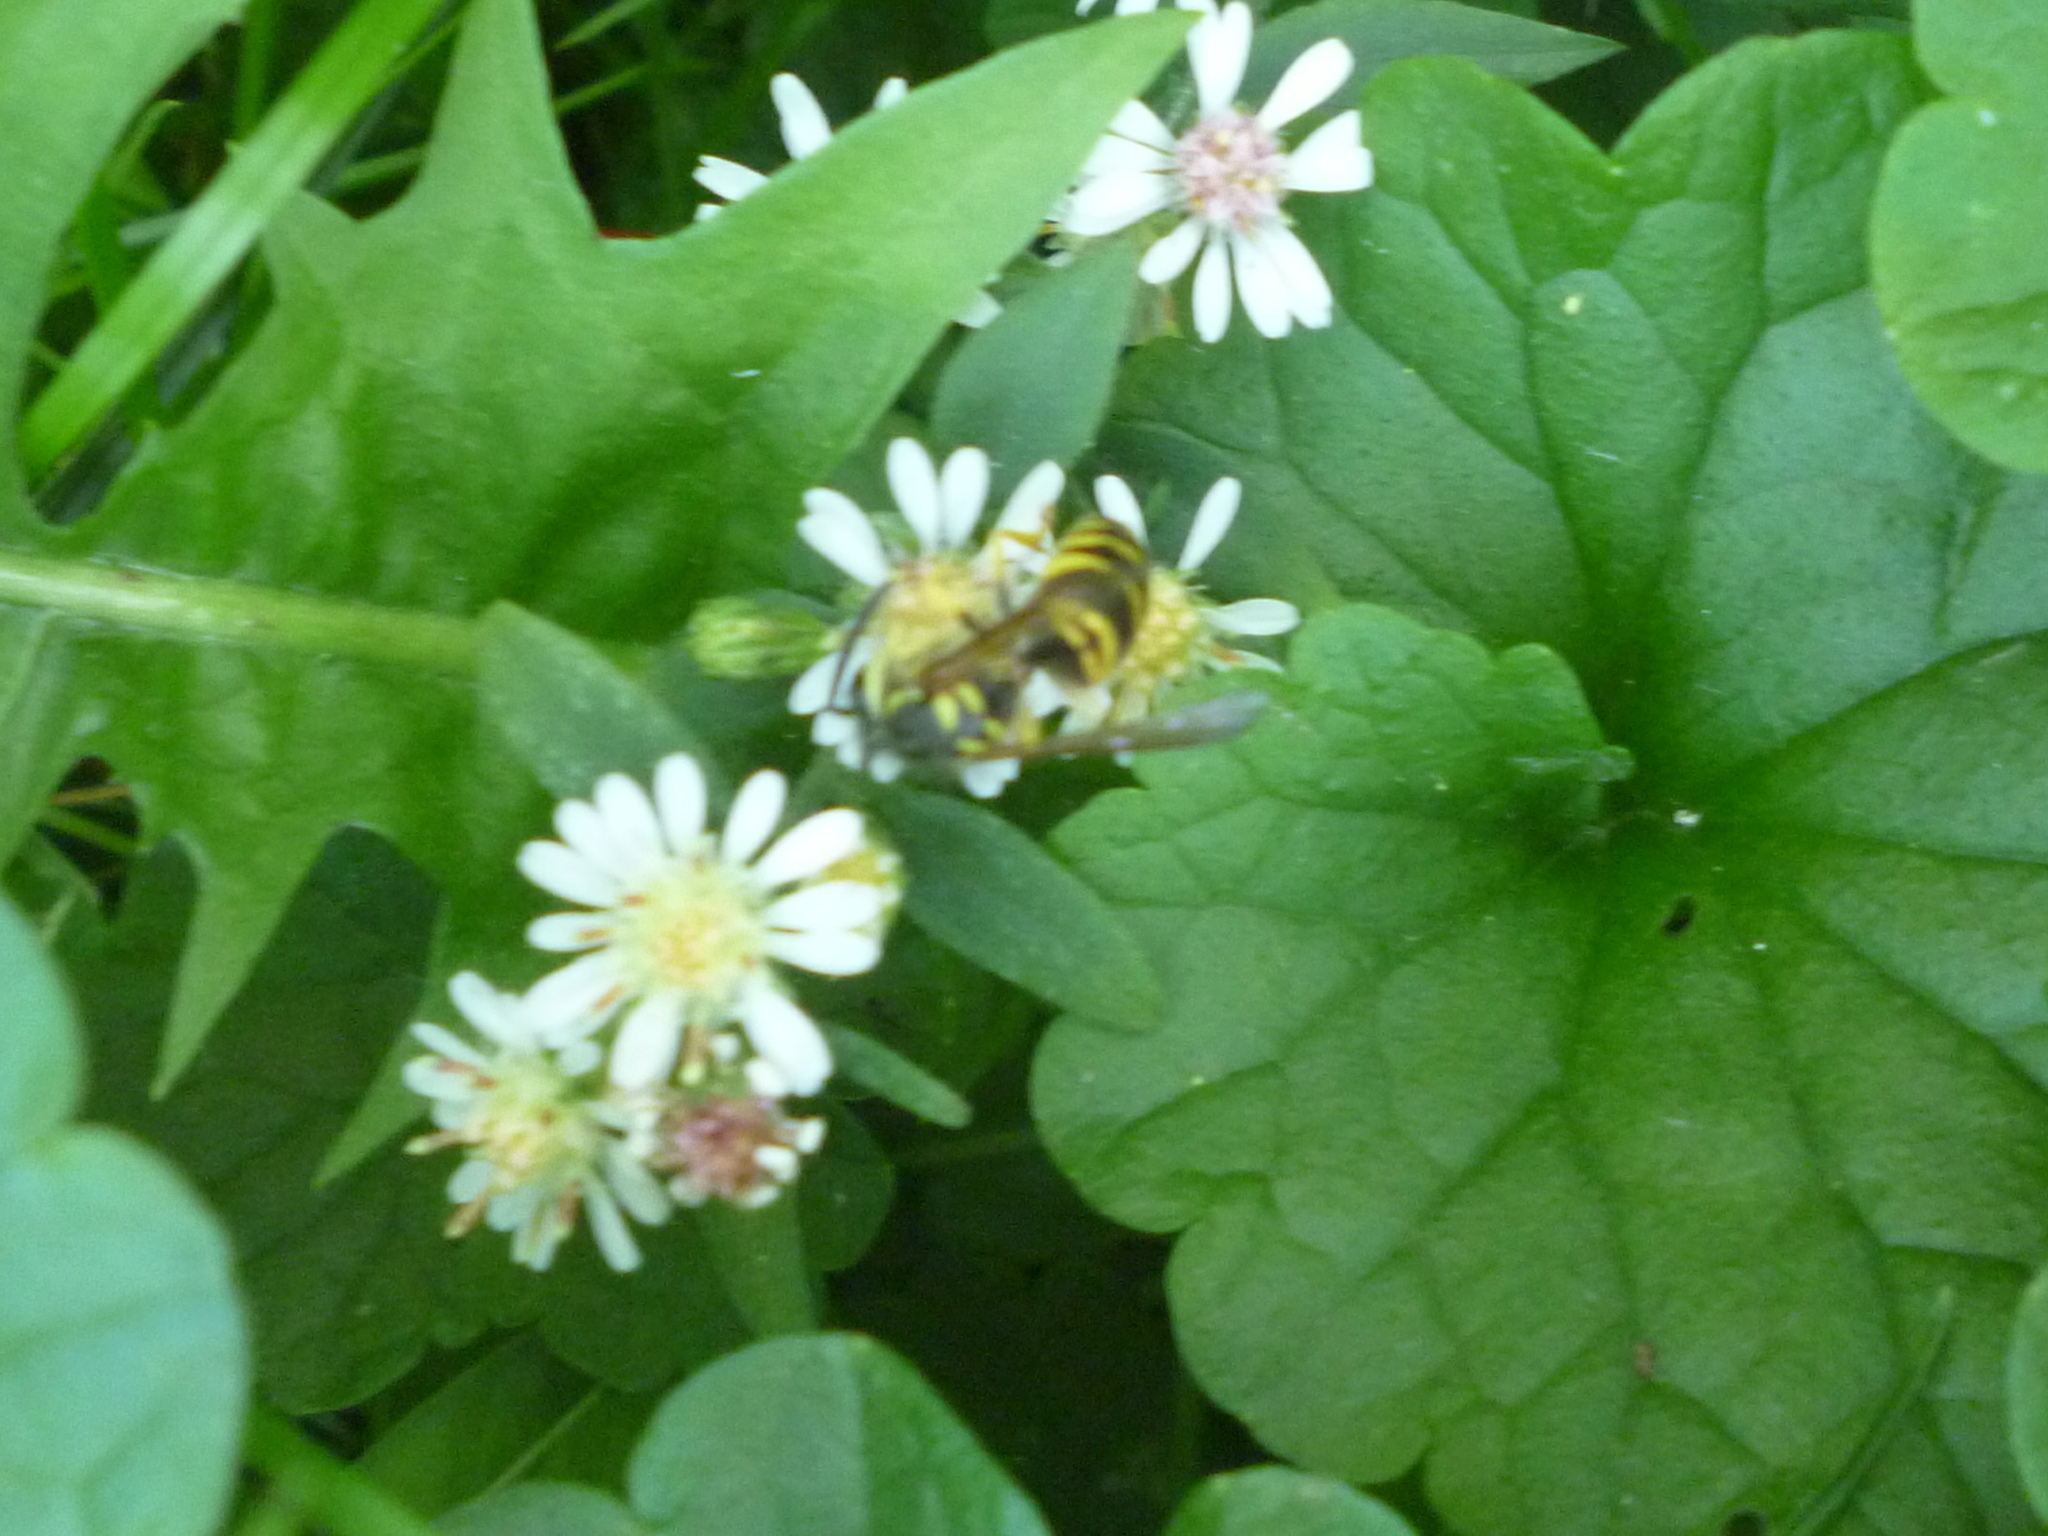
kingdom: Animalia
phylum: Arthropoda
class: Insecta
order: Hymenoptera
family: Vespidae
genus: Vespula
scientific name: Vespula maculifrons
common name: Eastern yellowjacket
